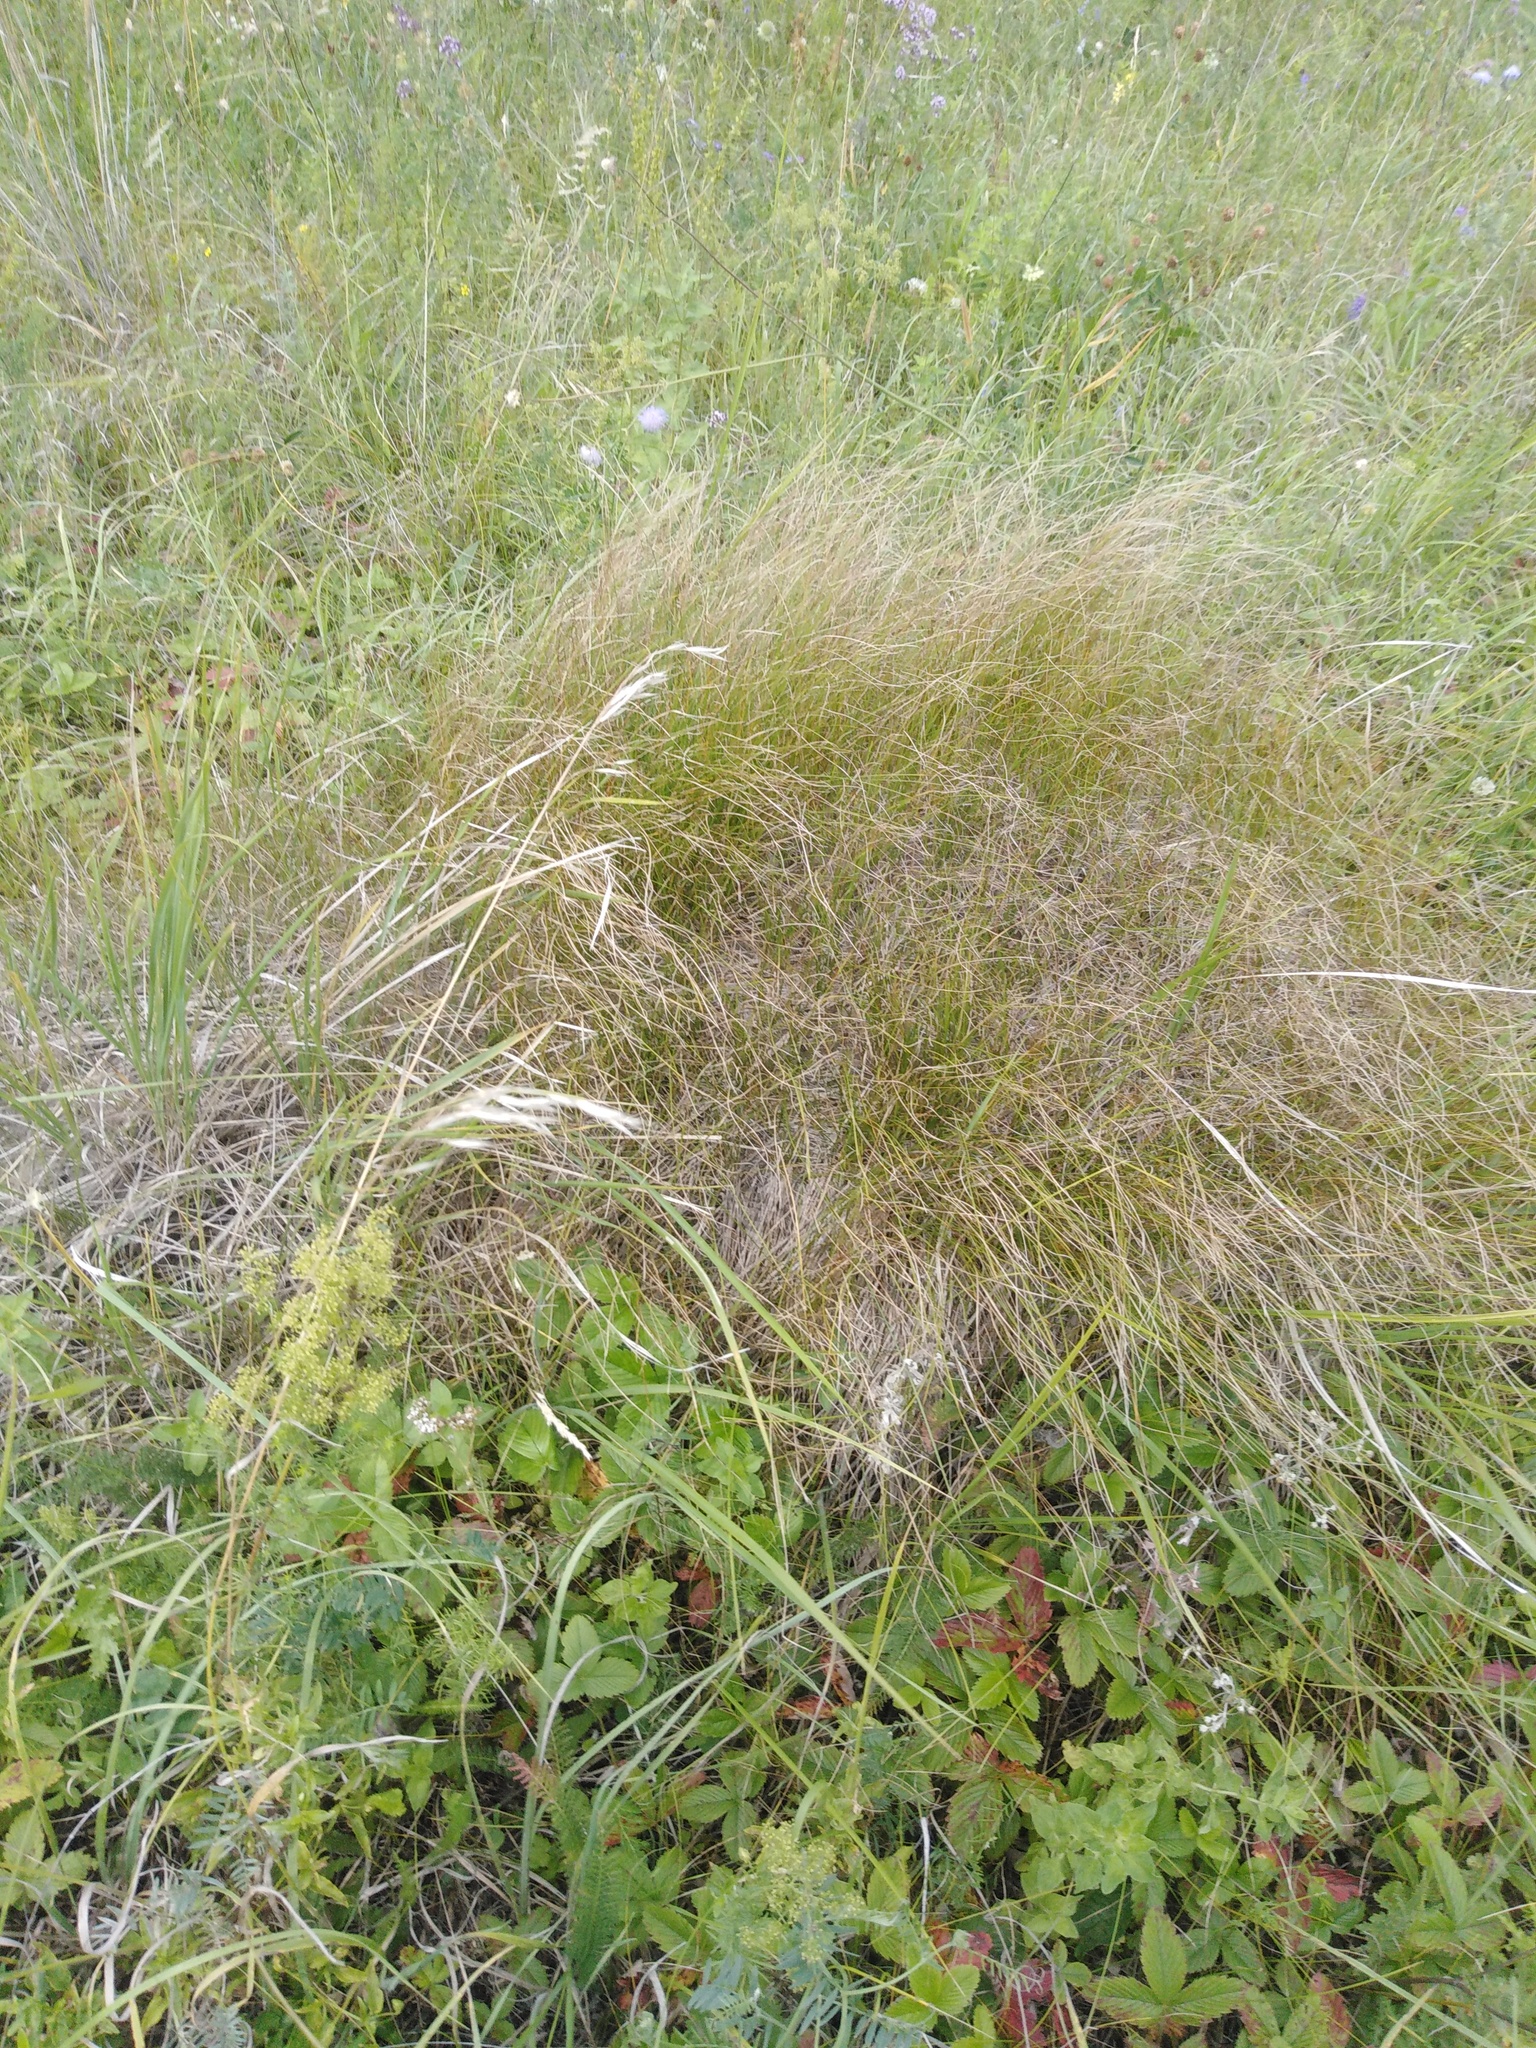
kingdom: Plantae
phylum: Tracheophyta
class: Liliopsida
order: Poales
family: Cyperaceae
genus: Carex
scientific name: Carex praecox
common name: Early sedge
